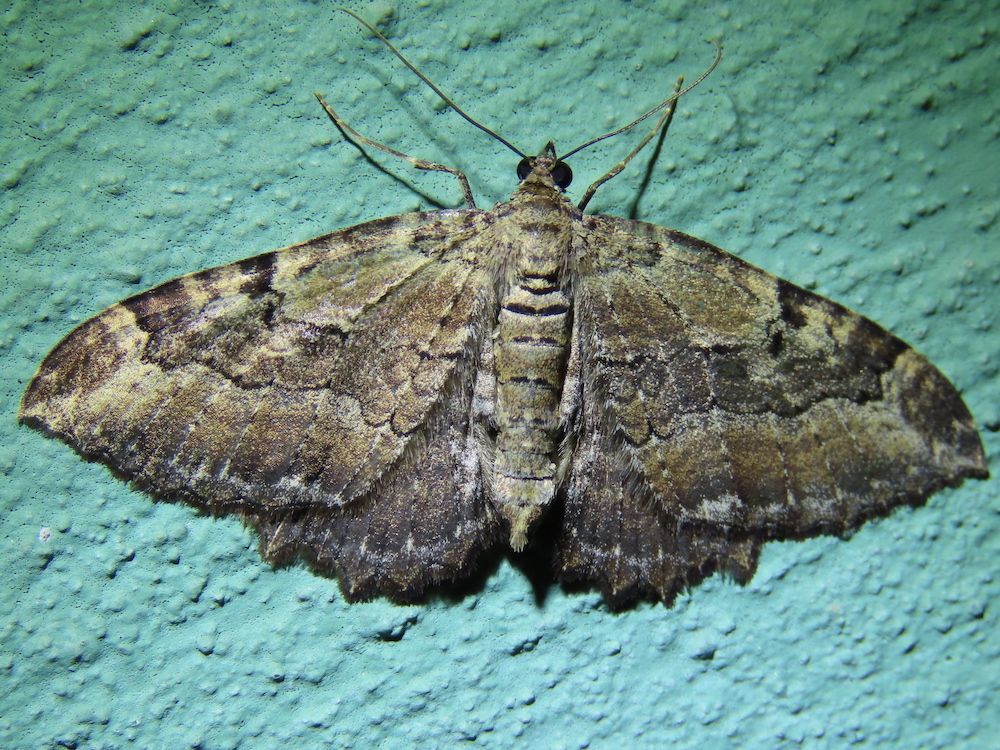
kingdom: Animalia
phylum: Arthropoda
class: Insecta
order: Lepidoptera
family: Geometridae
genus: Rheumaptera
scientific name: Rheumaptera
